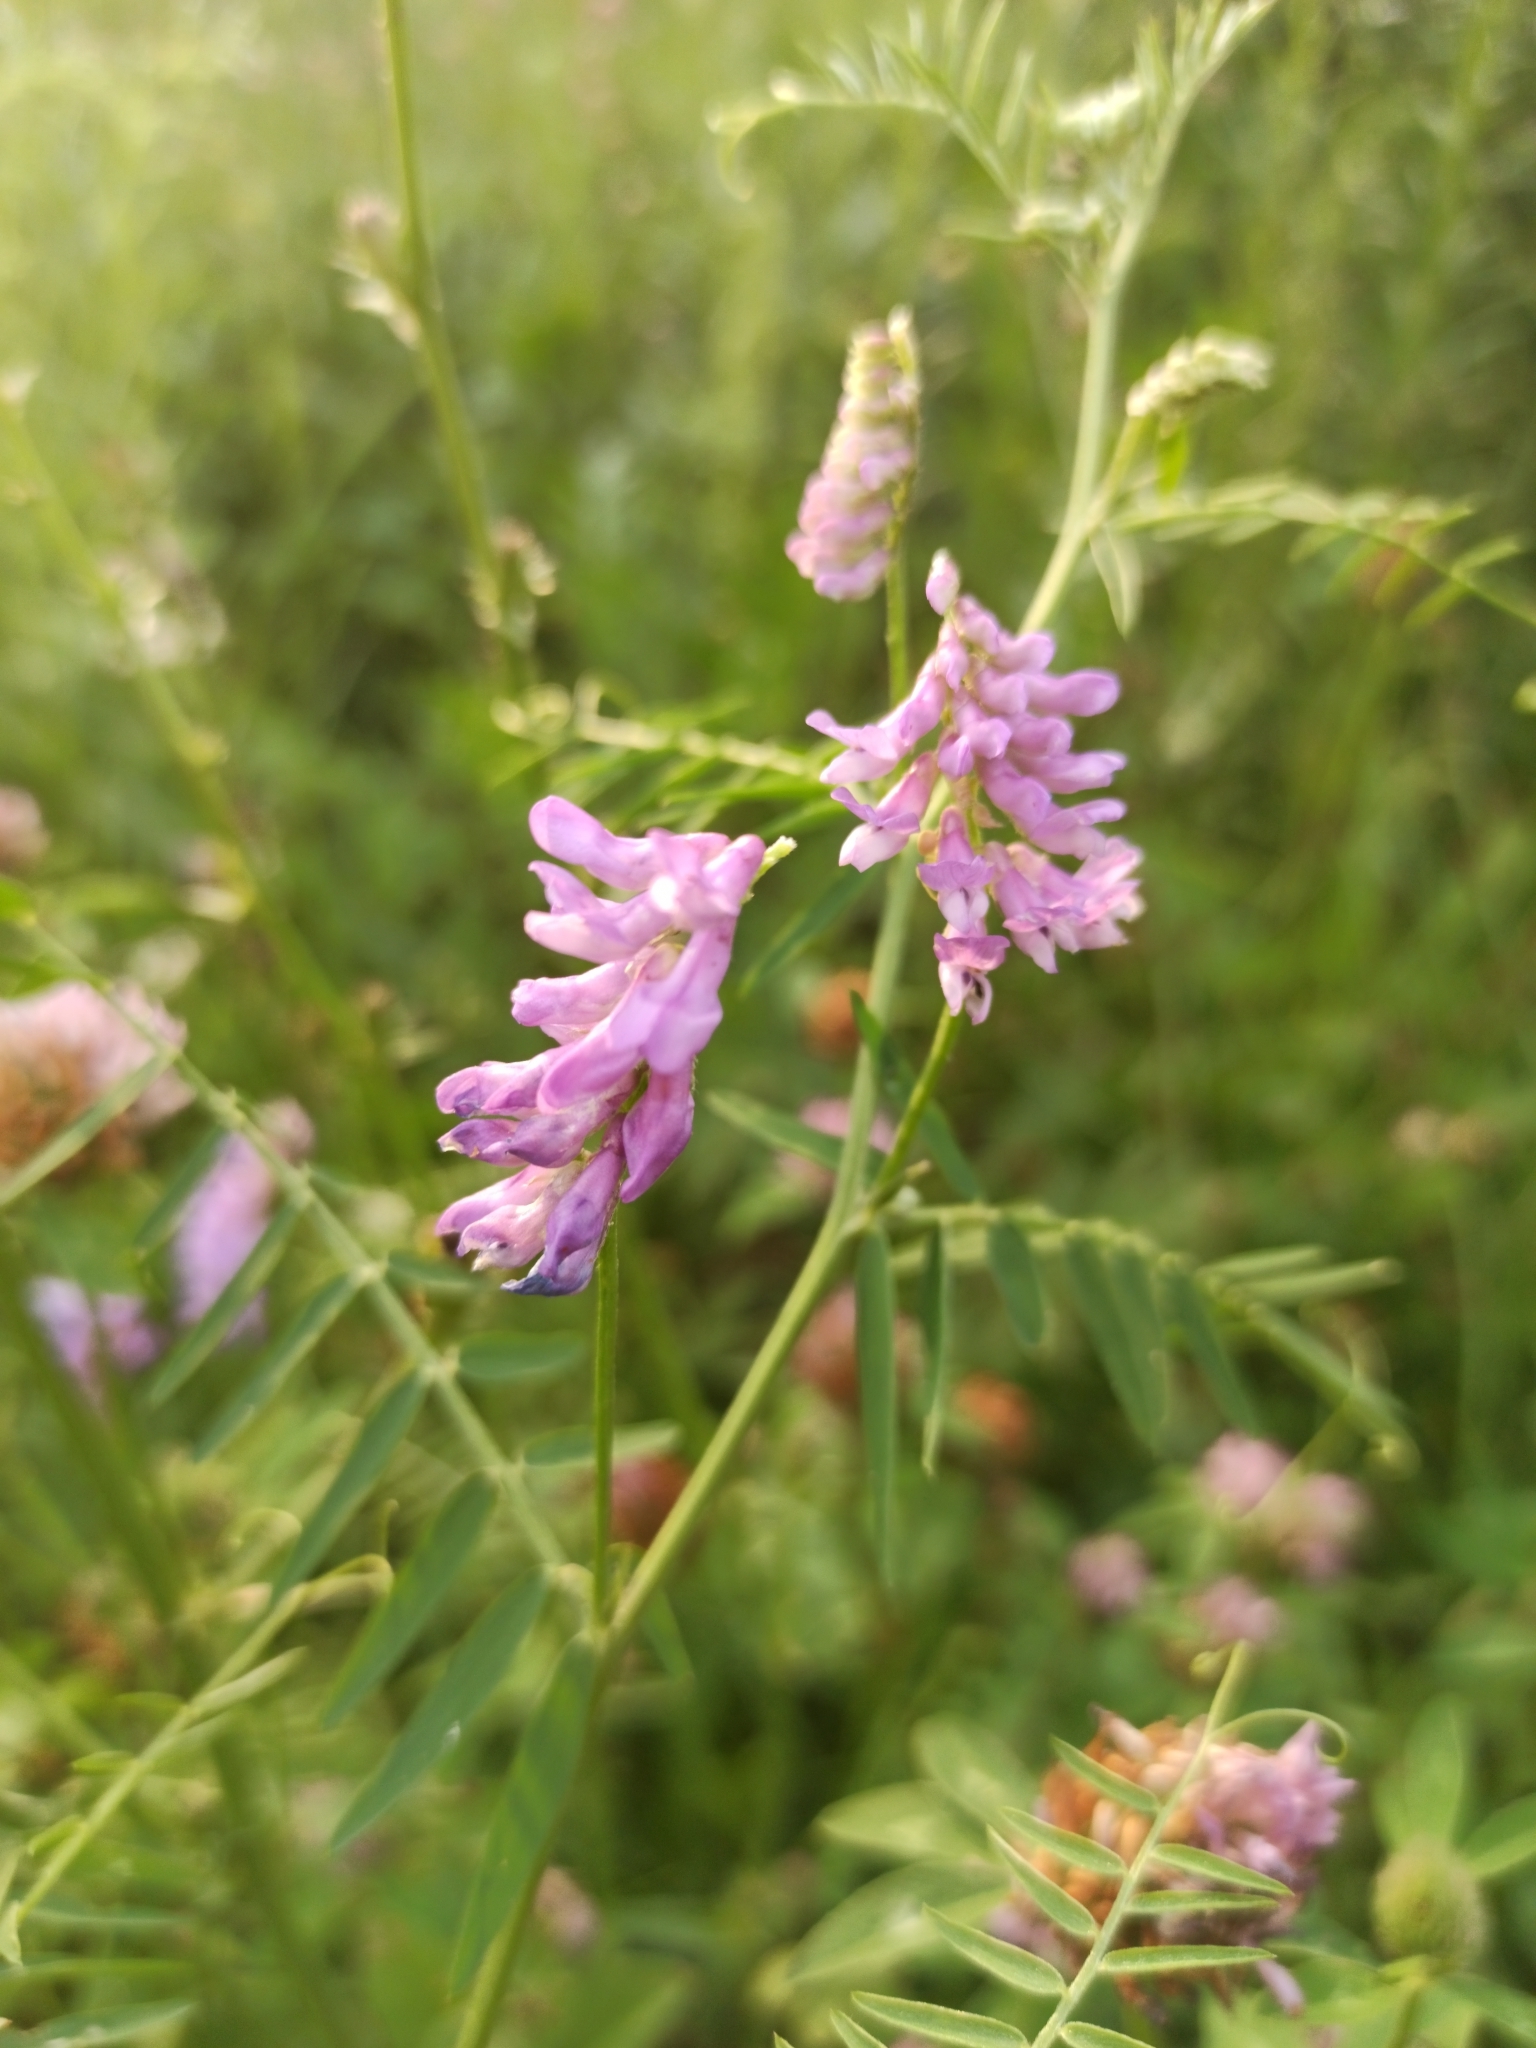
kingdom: Plantae
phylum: Tracheophyta
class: Magnoliopsida
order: Fabales
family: Fabaceae
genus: Vicia
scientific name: Vicia cracca
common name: Bird vetch
